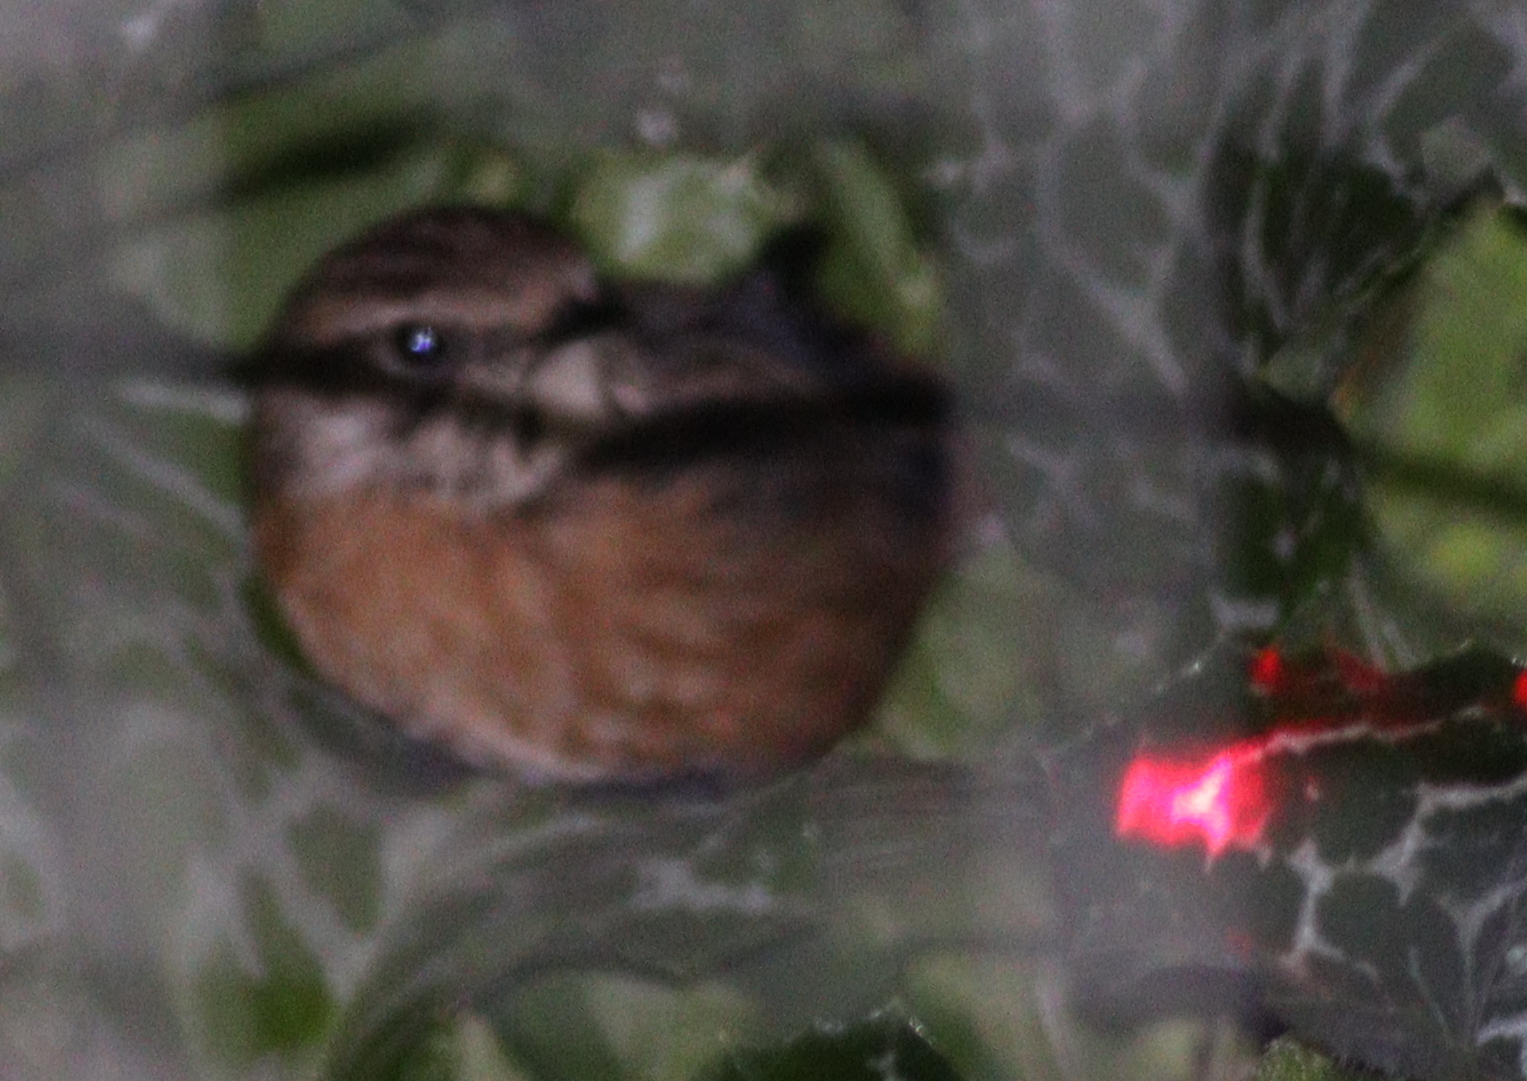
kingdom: Animalia
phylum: Chordata
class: Aves
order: Passeriformes
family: Muscicapidae
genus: Saxicola
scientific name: Saxicola rubicola
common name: European stonechat
